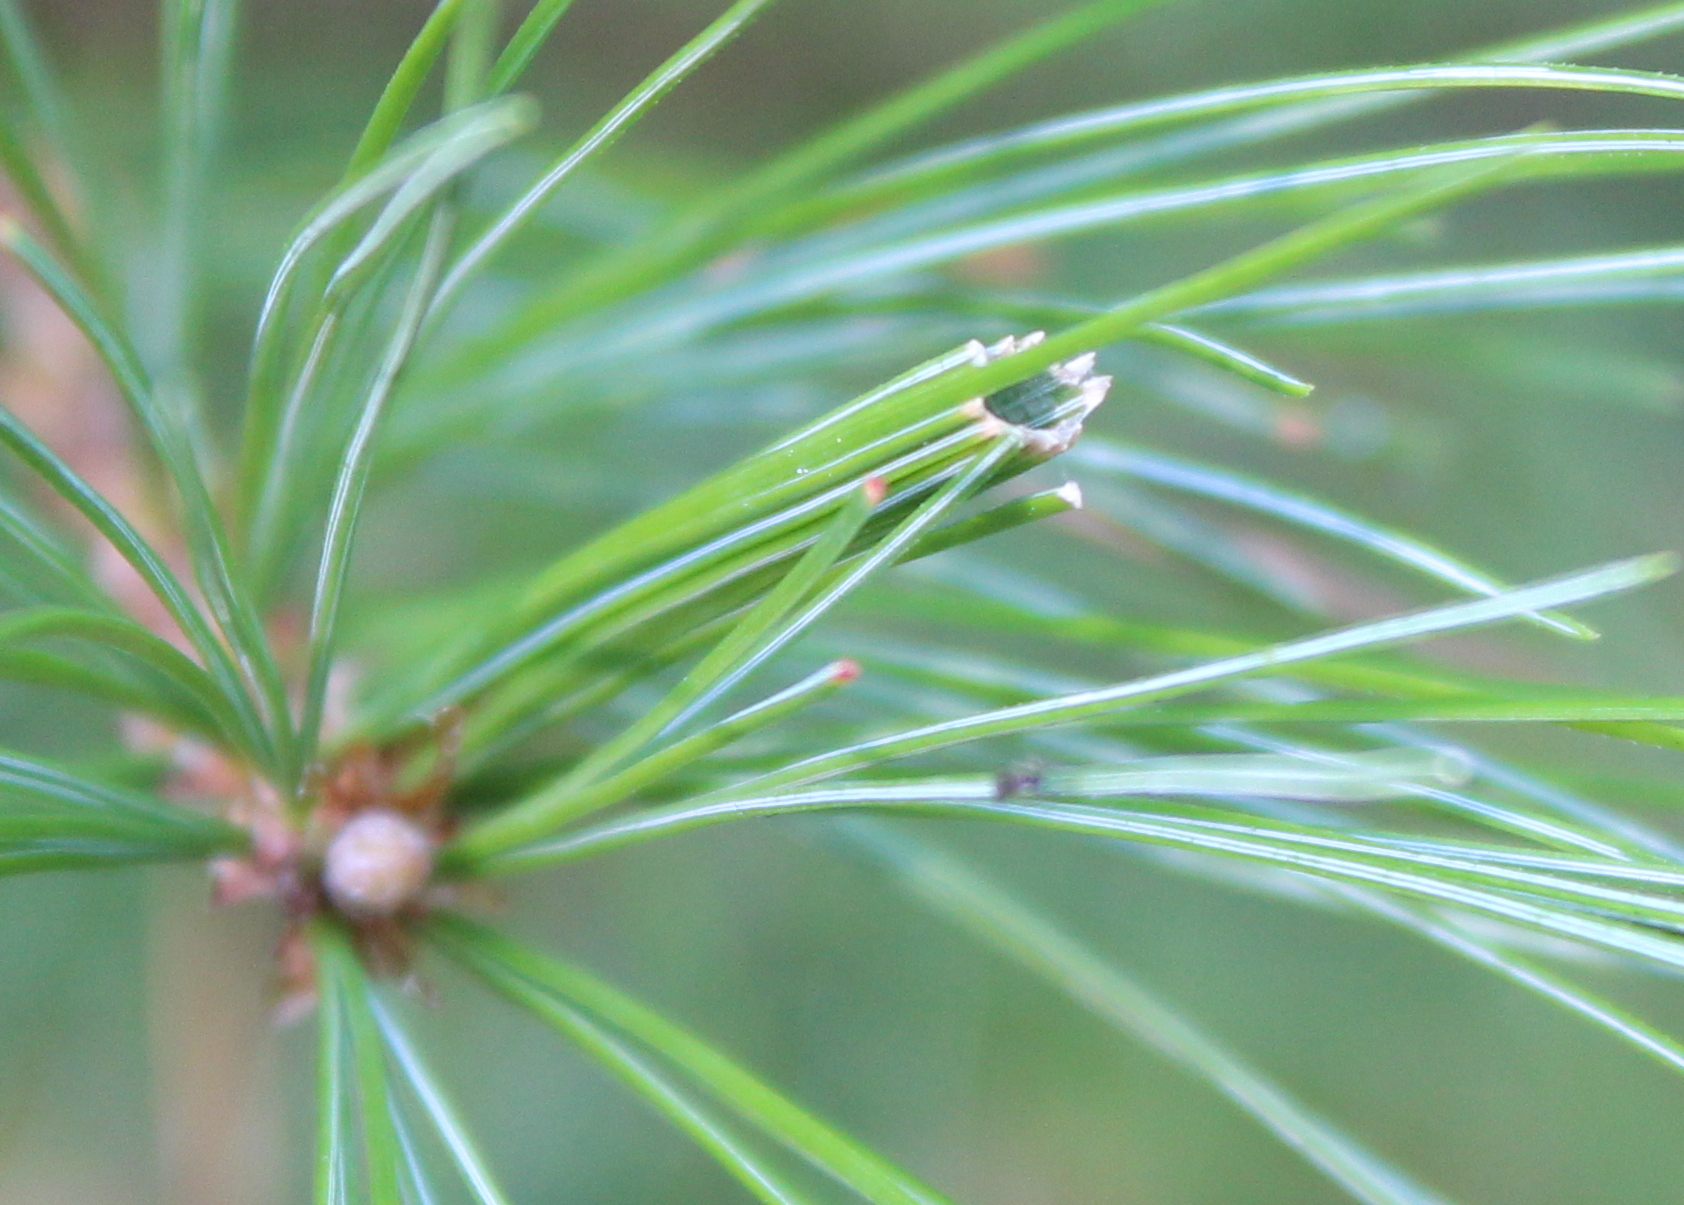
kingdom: Animalia
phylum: Arthropoda
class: Insecta
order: Lepidoptera
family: Tortricidae
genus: Argyrotaenia
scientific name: Argyrotaenia pinatubana
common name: Pine tube moth
